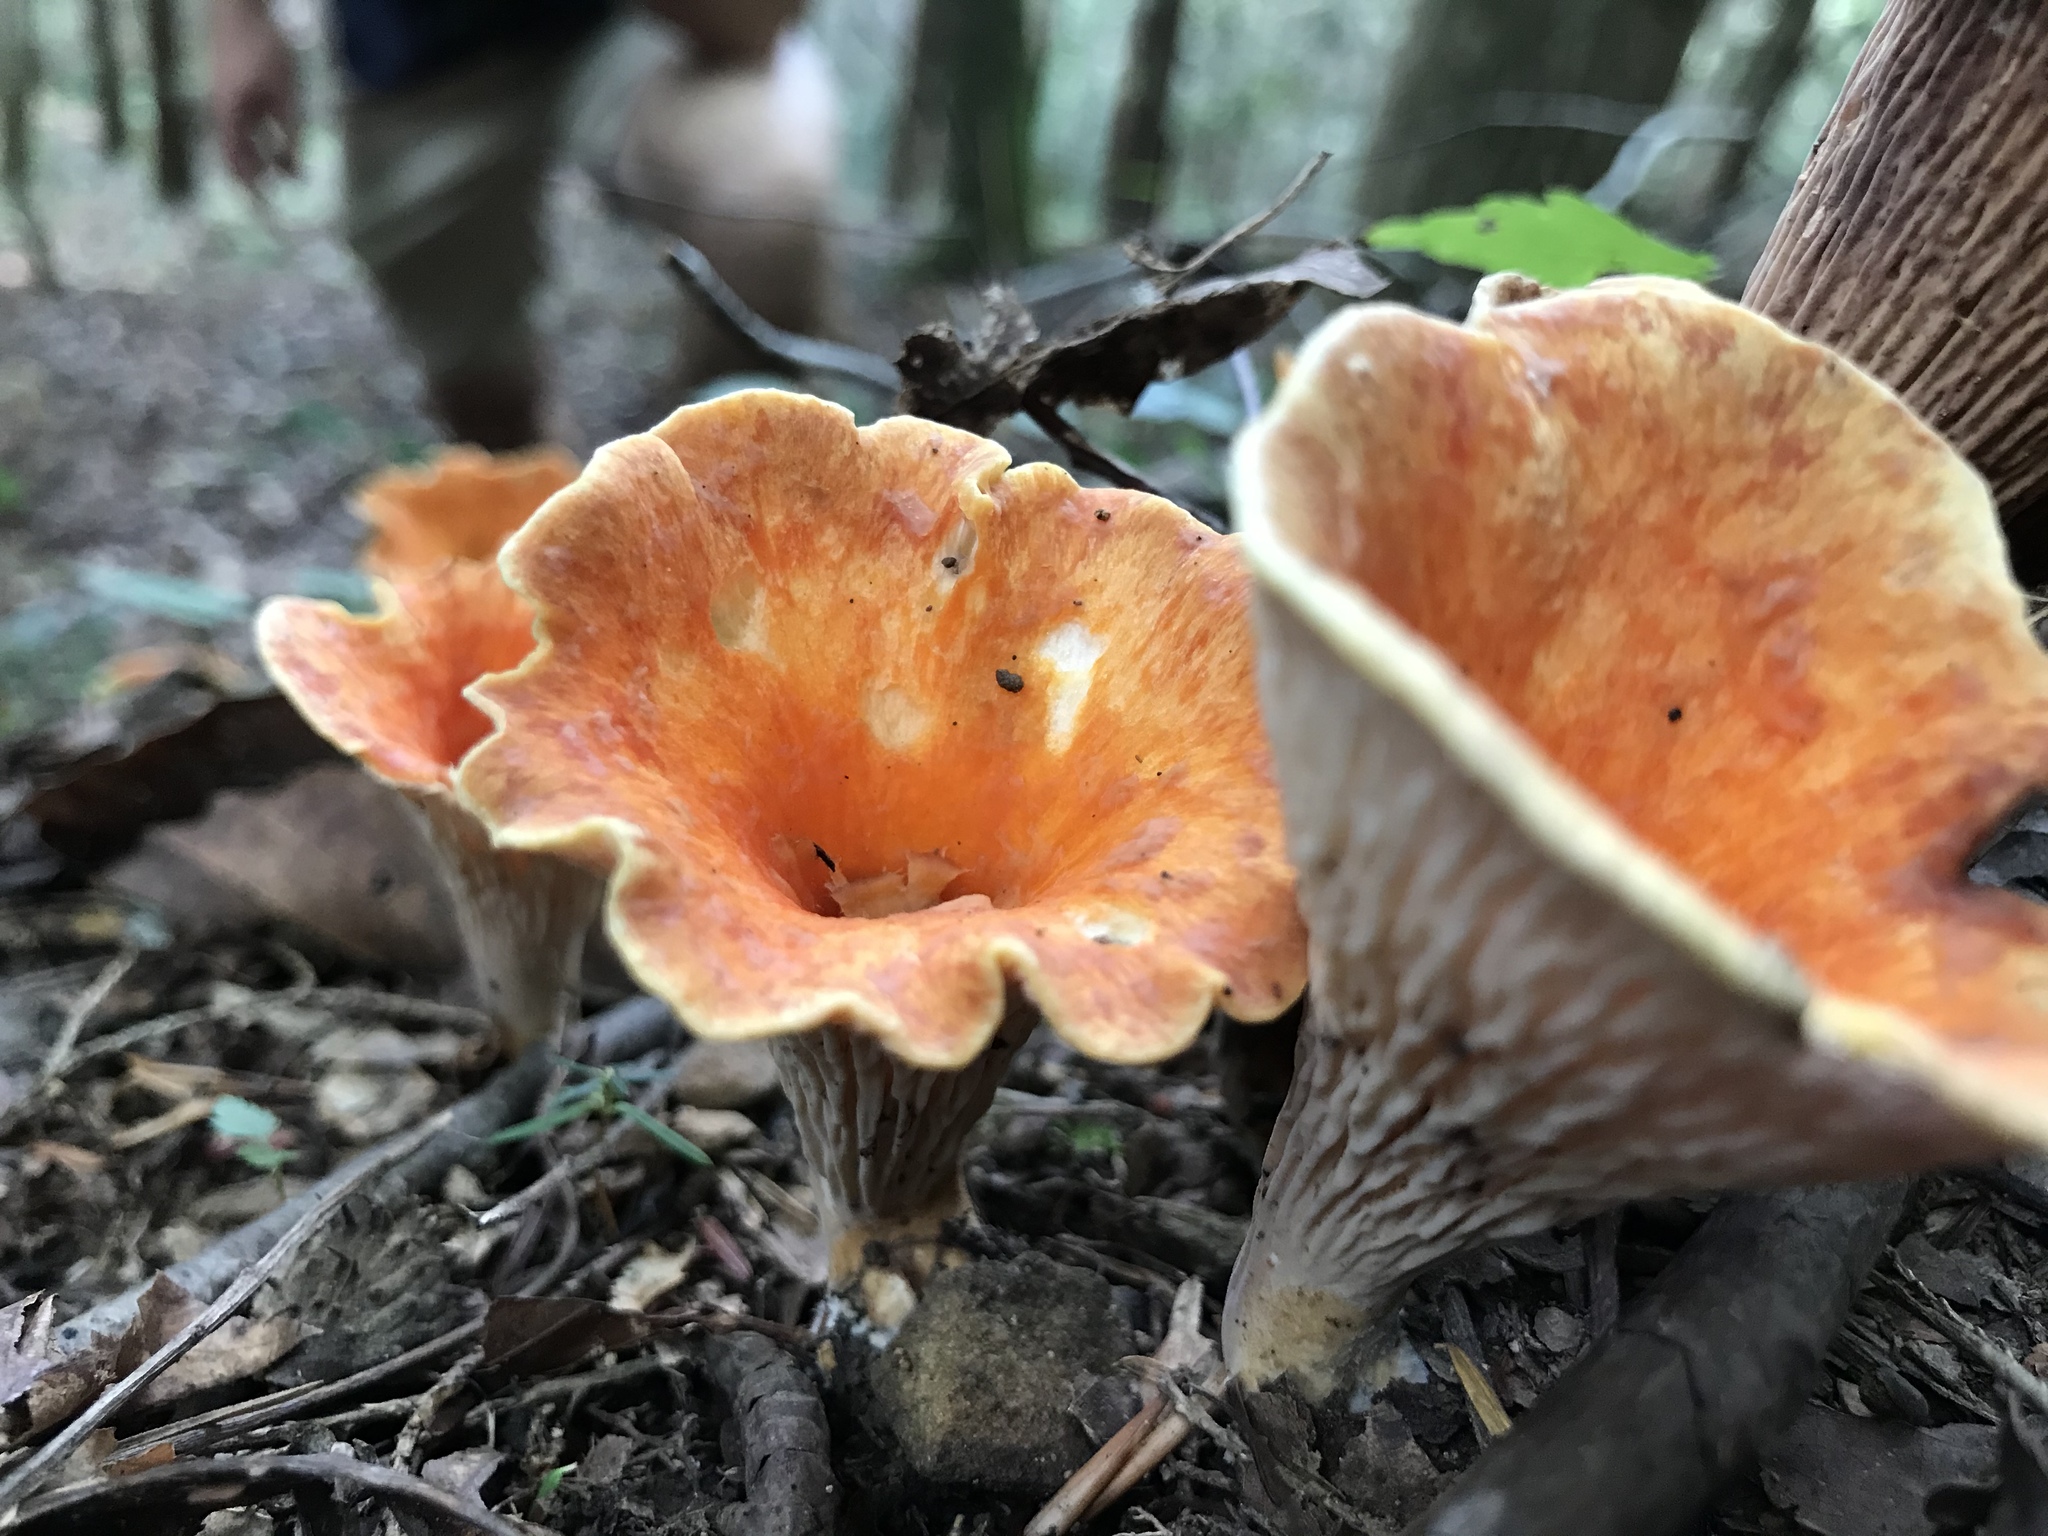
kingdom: Fungi
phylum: Basidiomycota
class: Agaricomycetes
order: Gomphales
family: Gomphaceae
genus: Turbinellus
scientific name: Turbinellus floccosus
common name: Scaly chanterelle
